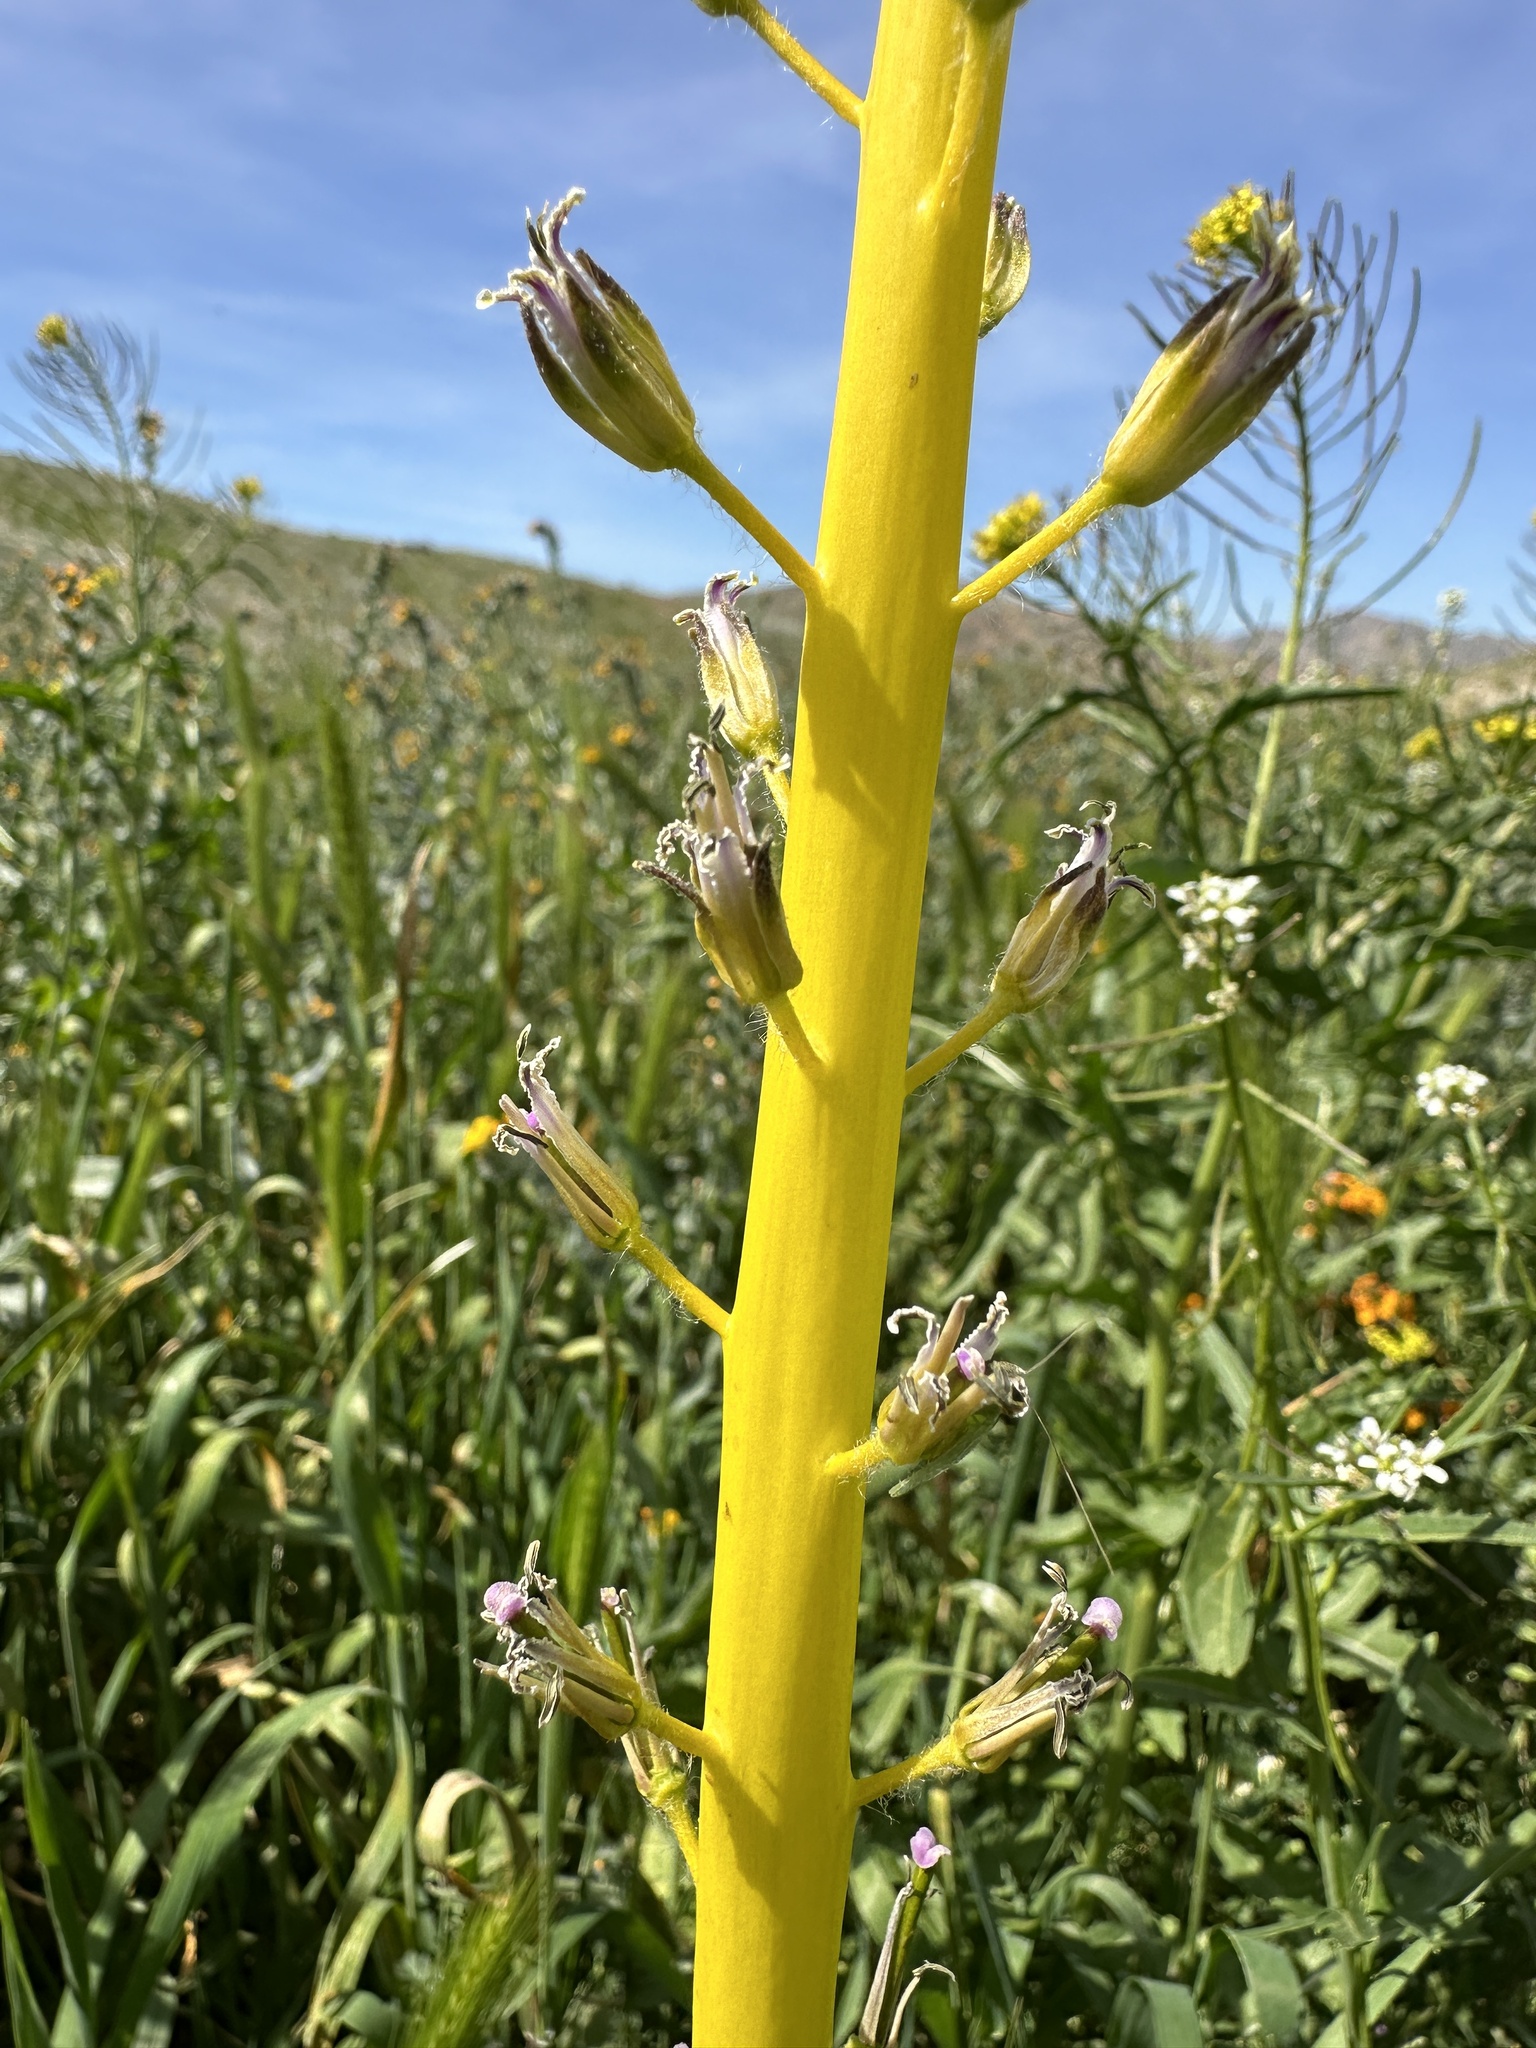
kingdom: Plantae
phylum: Tracheophyta
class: Magnoliopsida
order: Brassicales
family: Brassicaceae
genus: Streptanthus
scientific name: Streptanthus inflatus
